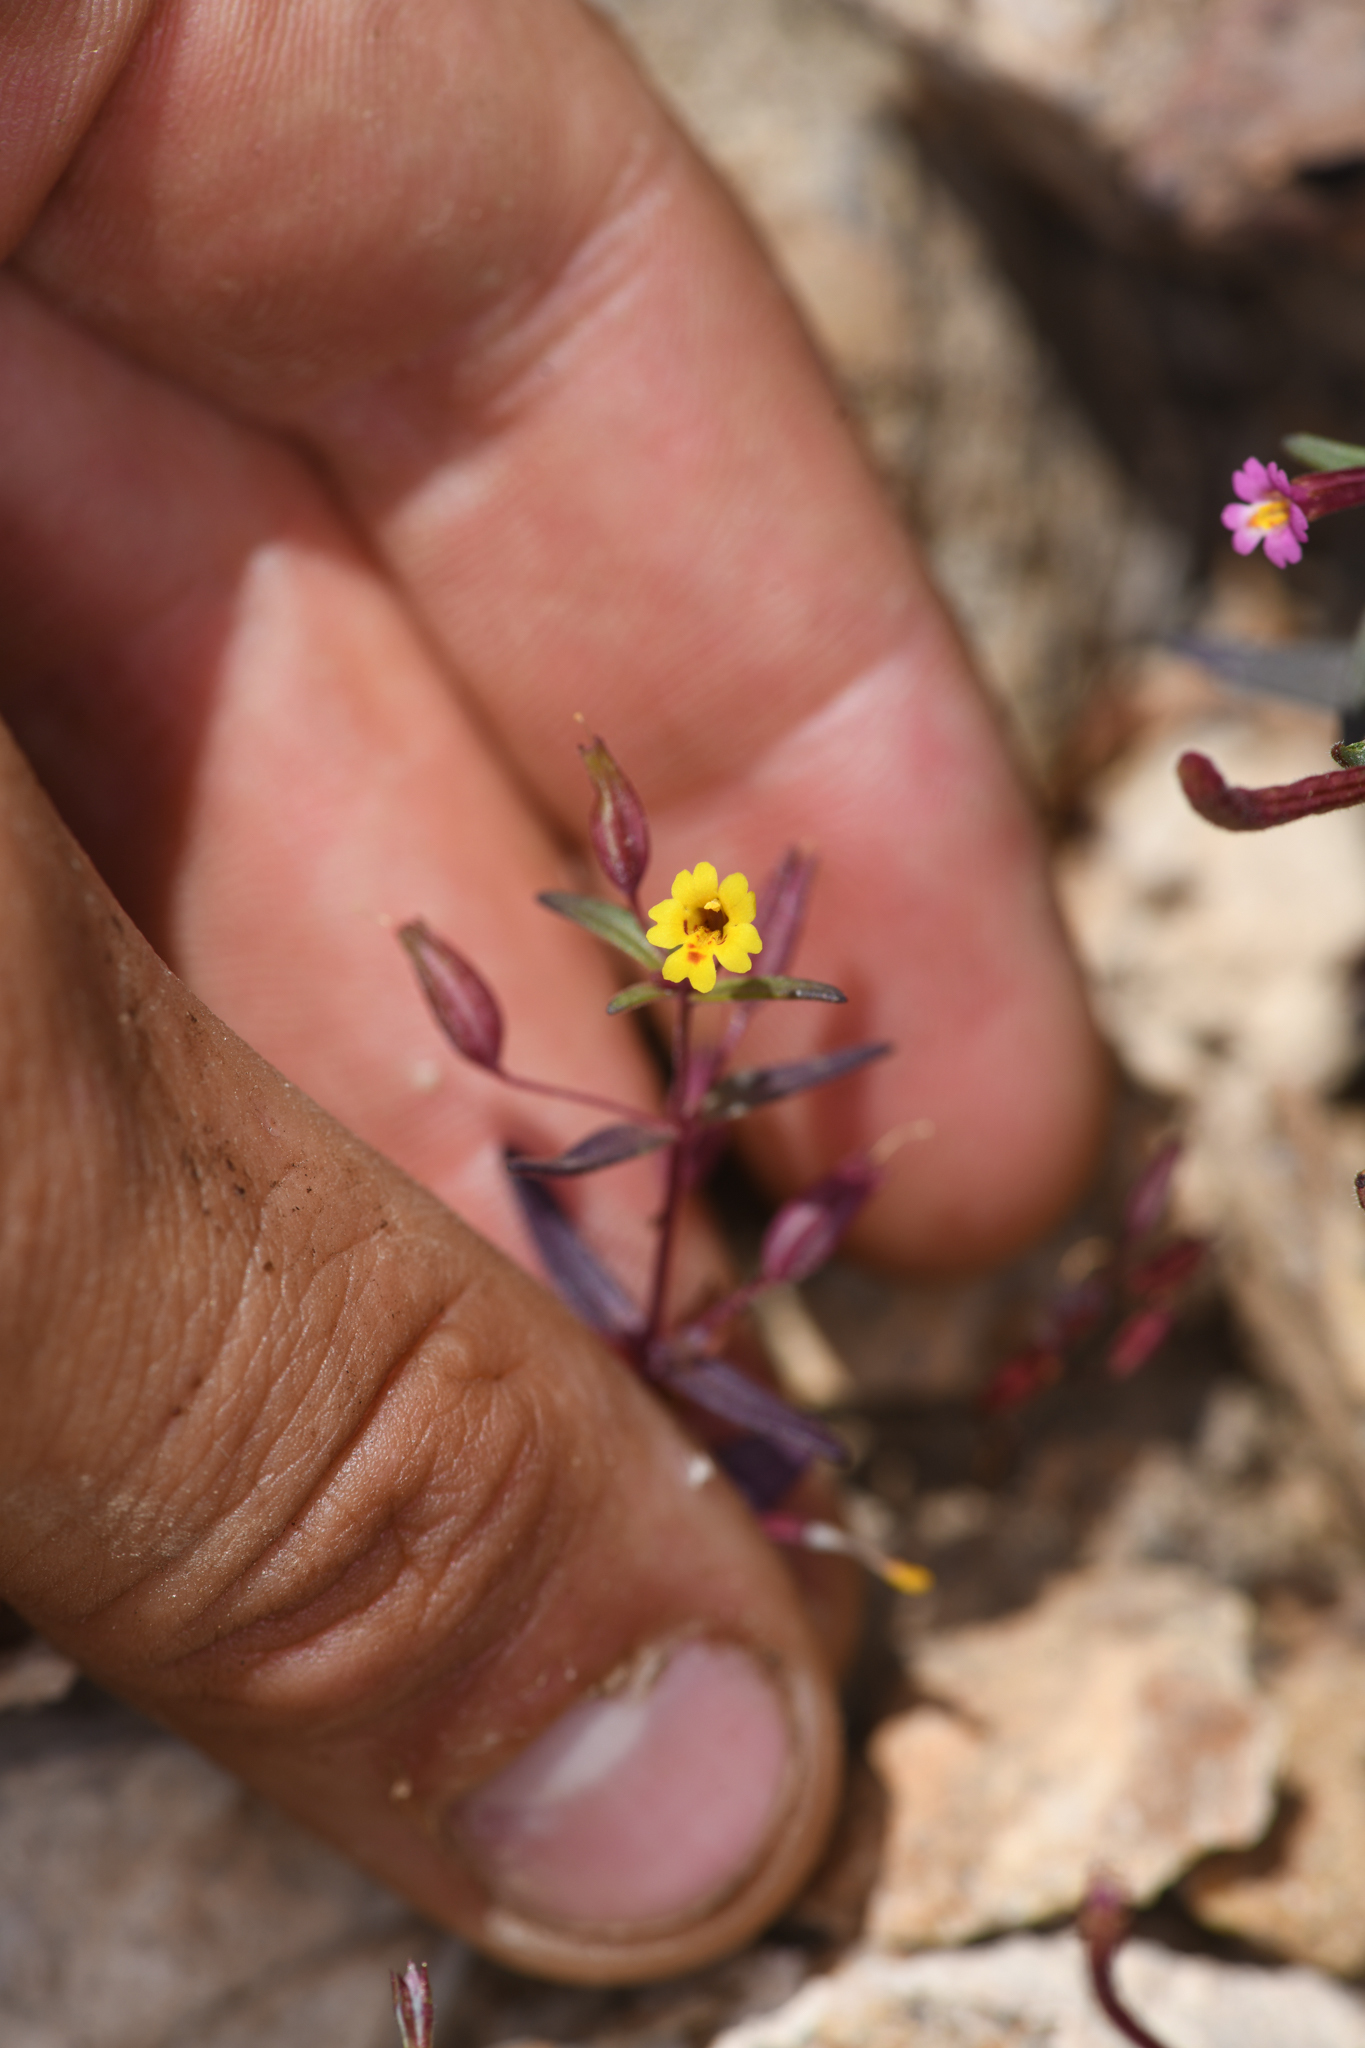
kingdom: Plantae
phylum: Tracheophyta
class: Magnoliopsida
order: Lamiales
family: Phrymaceae
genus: Erythranthe
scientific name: Erythranthe rubella
